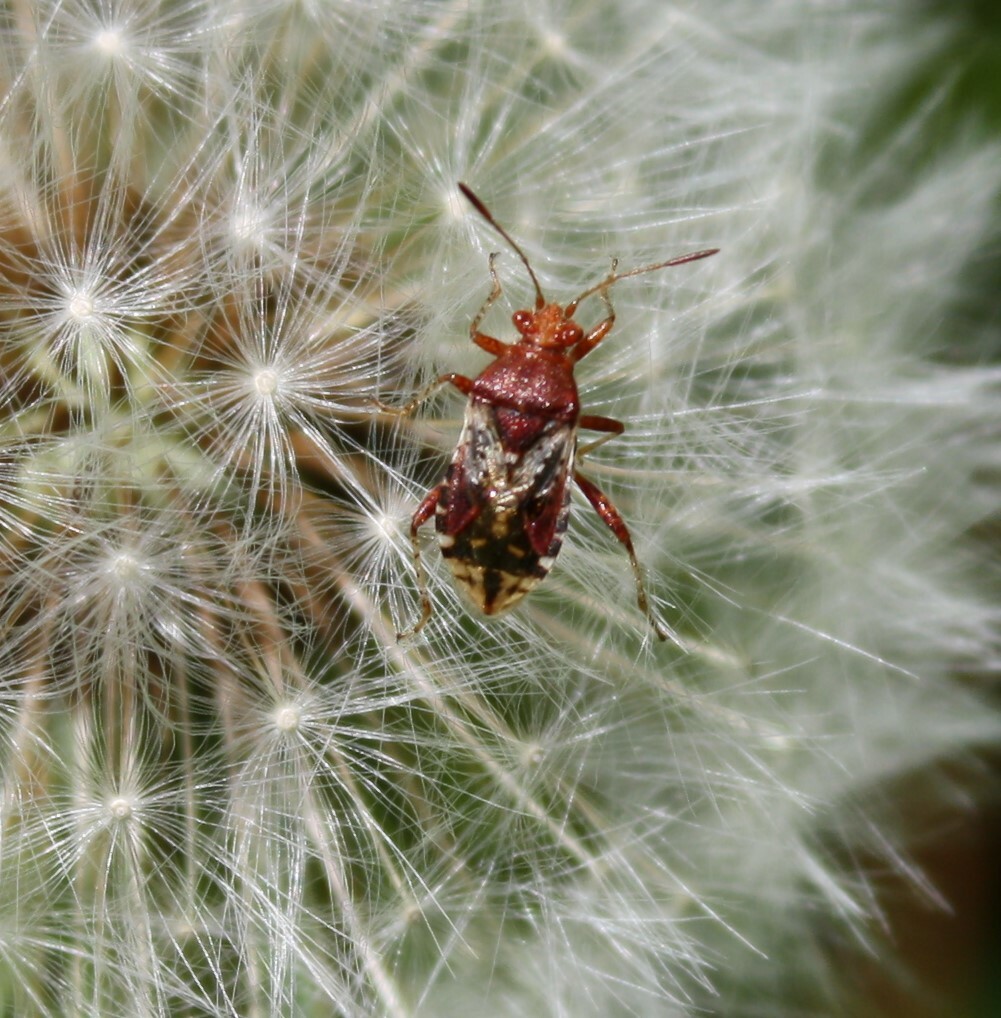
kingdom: Animalia
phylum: Arthropoda
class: Insecta
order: Hemiptera
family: Rhopalidae
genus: Rhopalus
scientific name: Rhopalus subrufus
